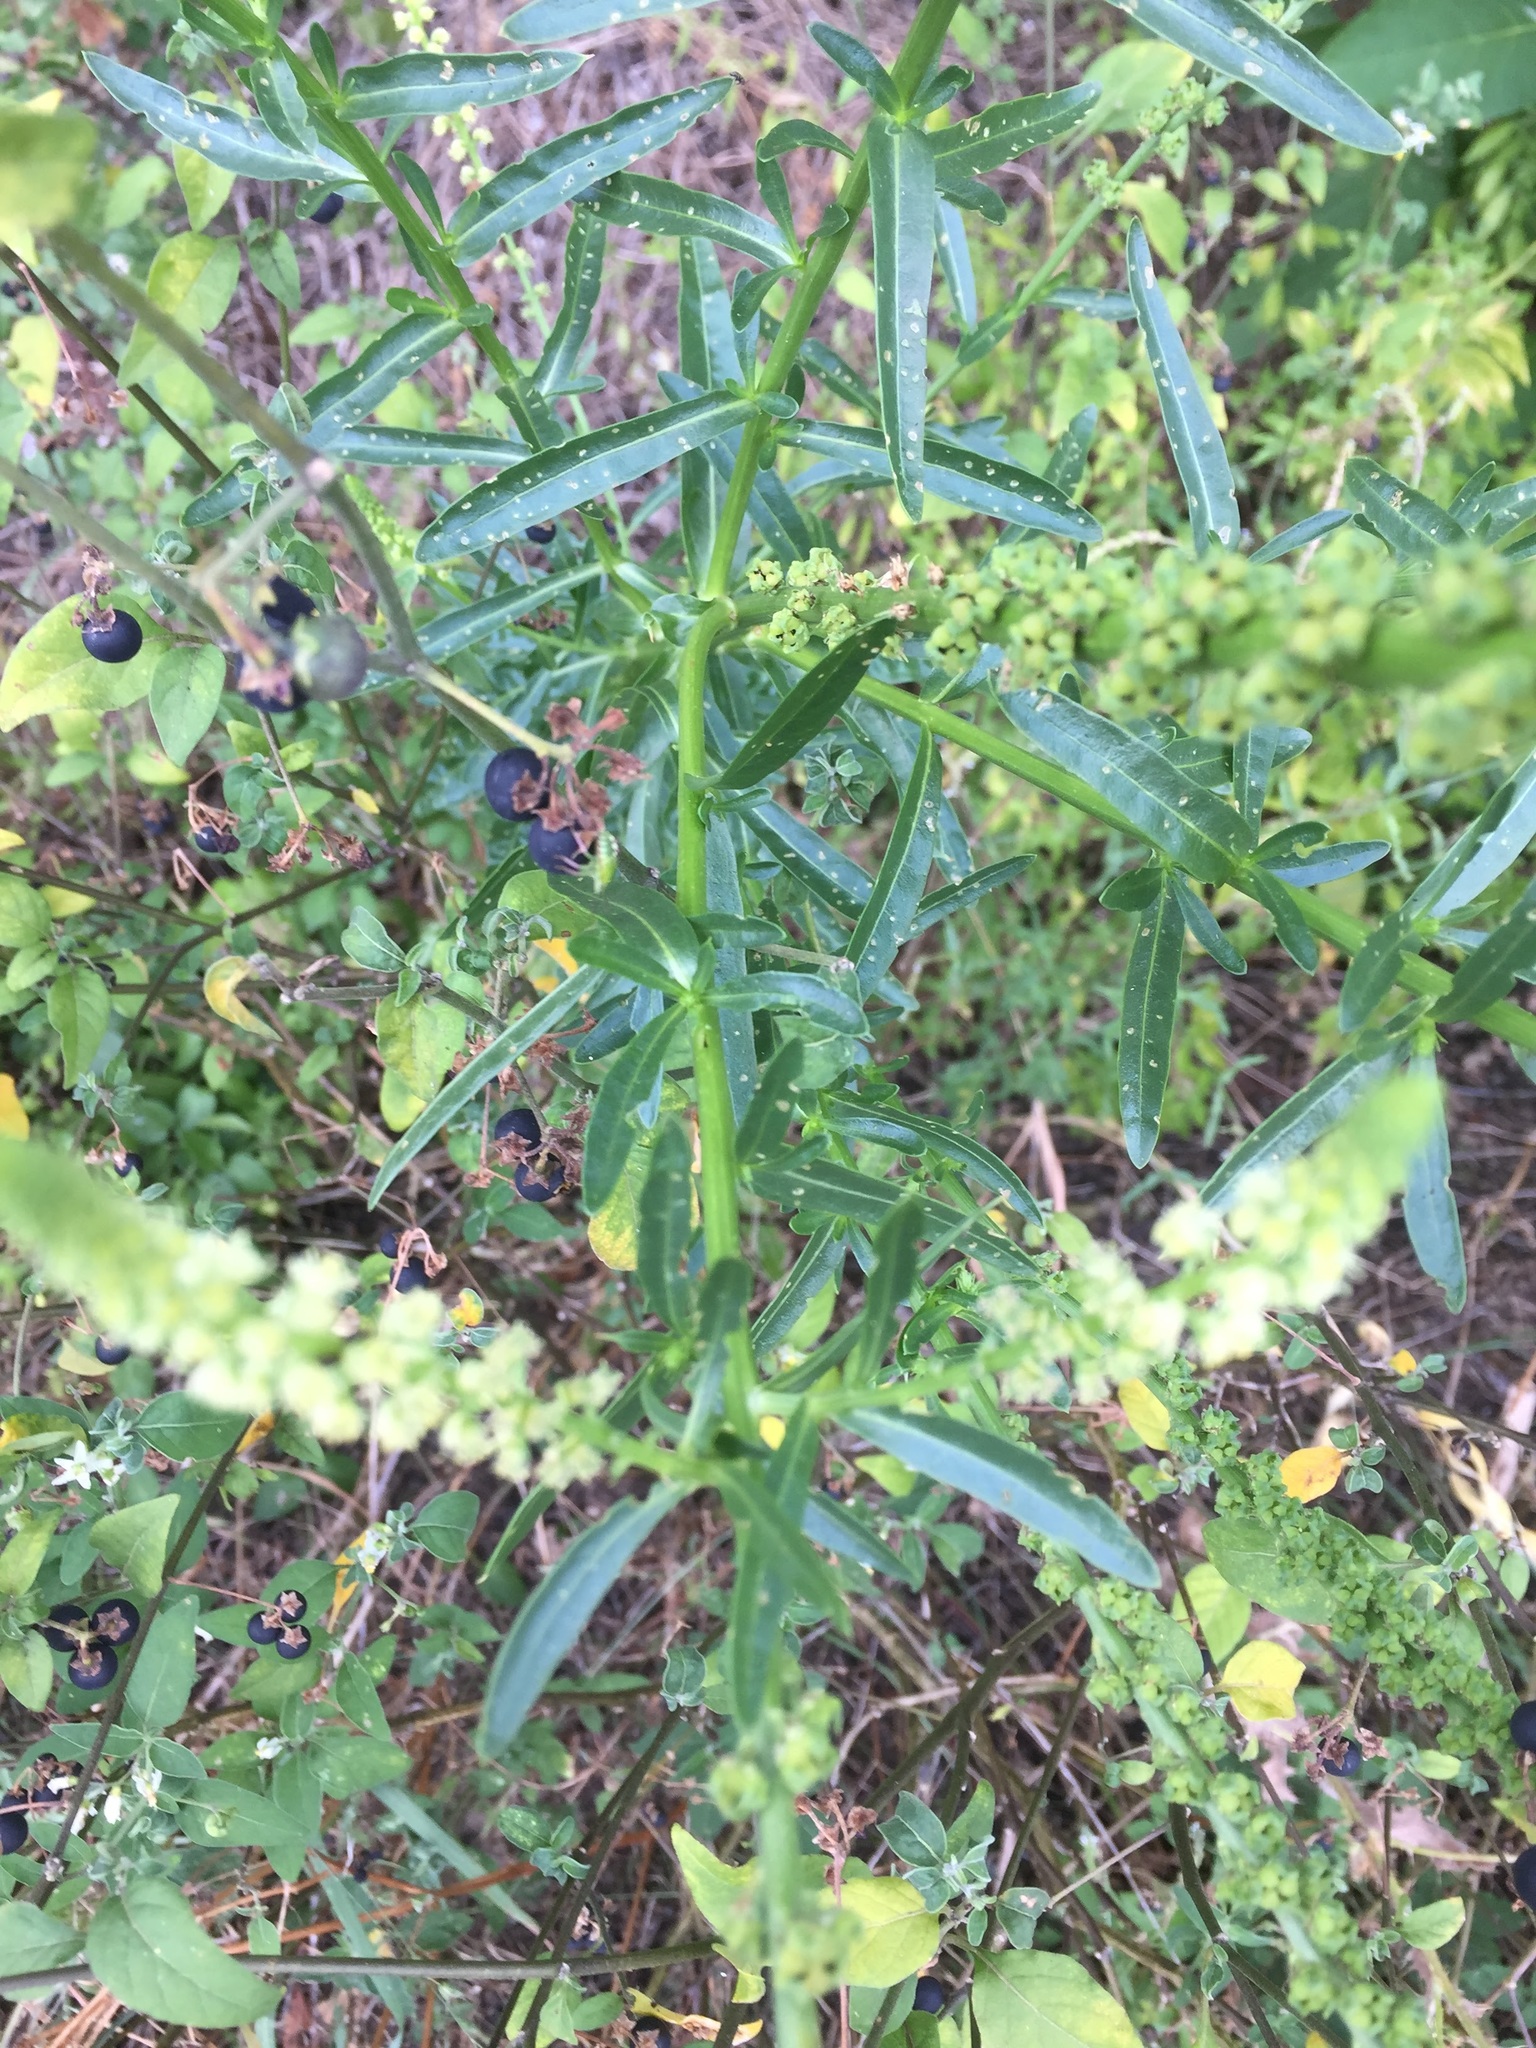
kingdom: Plantae
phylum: Tracheophyta
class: Magnoliopsida
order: Brassicales
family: Resedaceae
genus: Reseda
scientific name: Reseda luteola
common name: Weld
